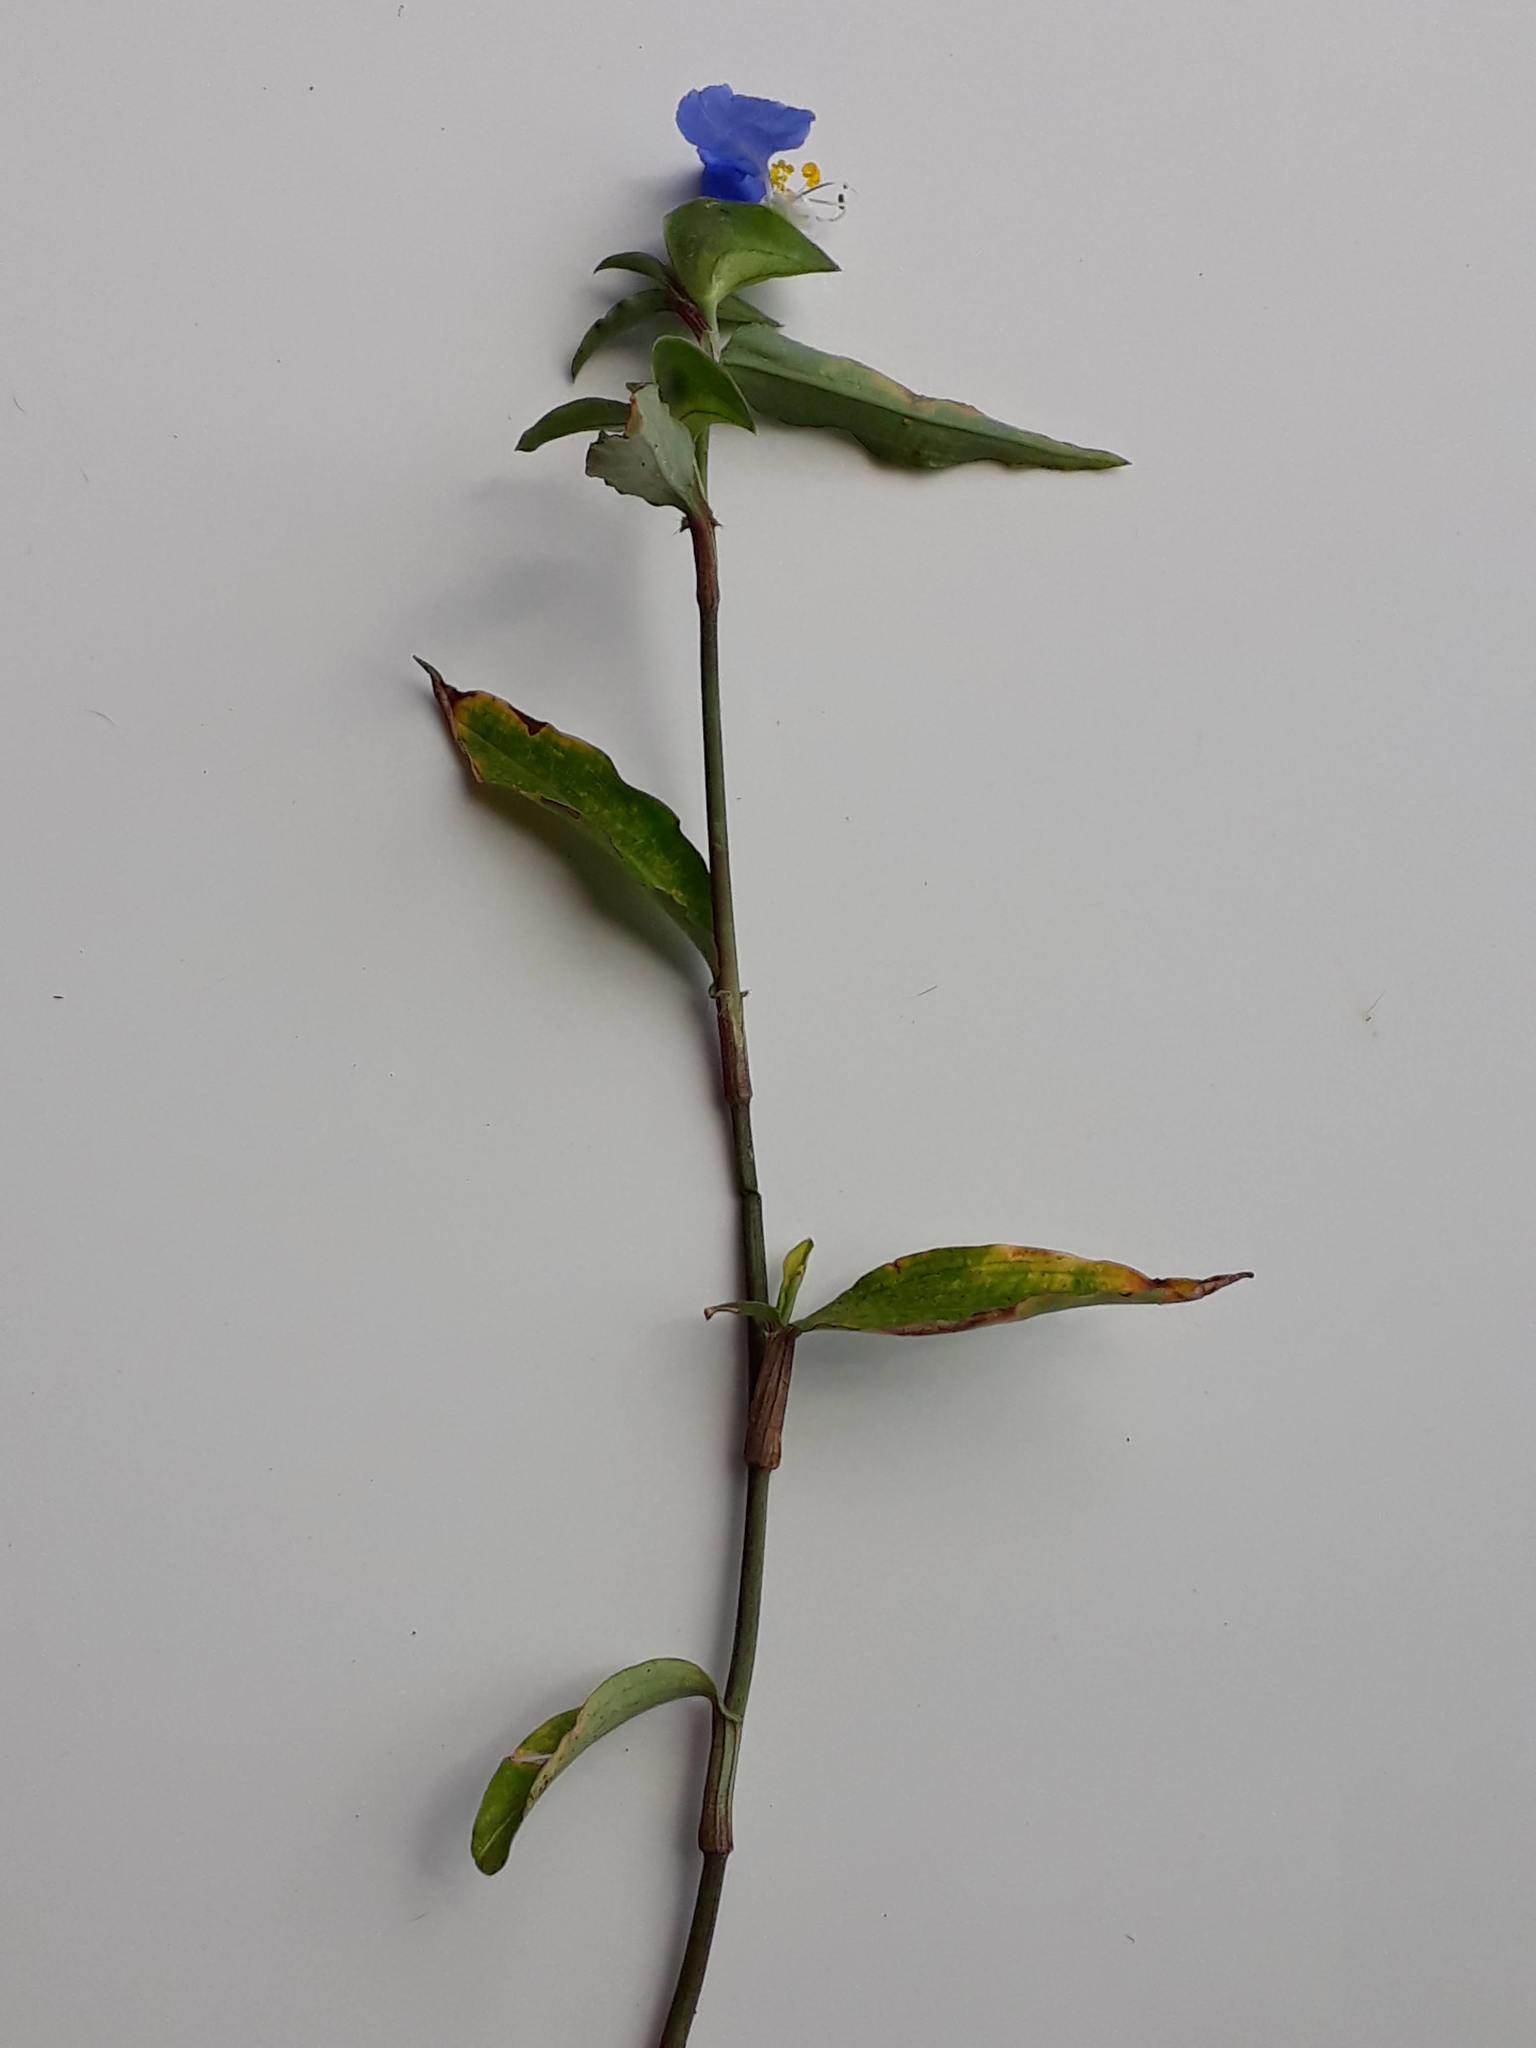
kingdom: Plantae
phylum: Tracheophyta
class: Liliopsida
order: Commelinales
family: Commelinaceae
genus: Commelina
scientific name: Commelina erecta
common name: Blousel blommetjie
